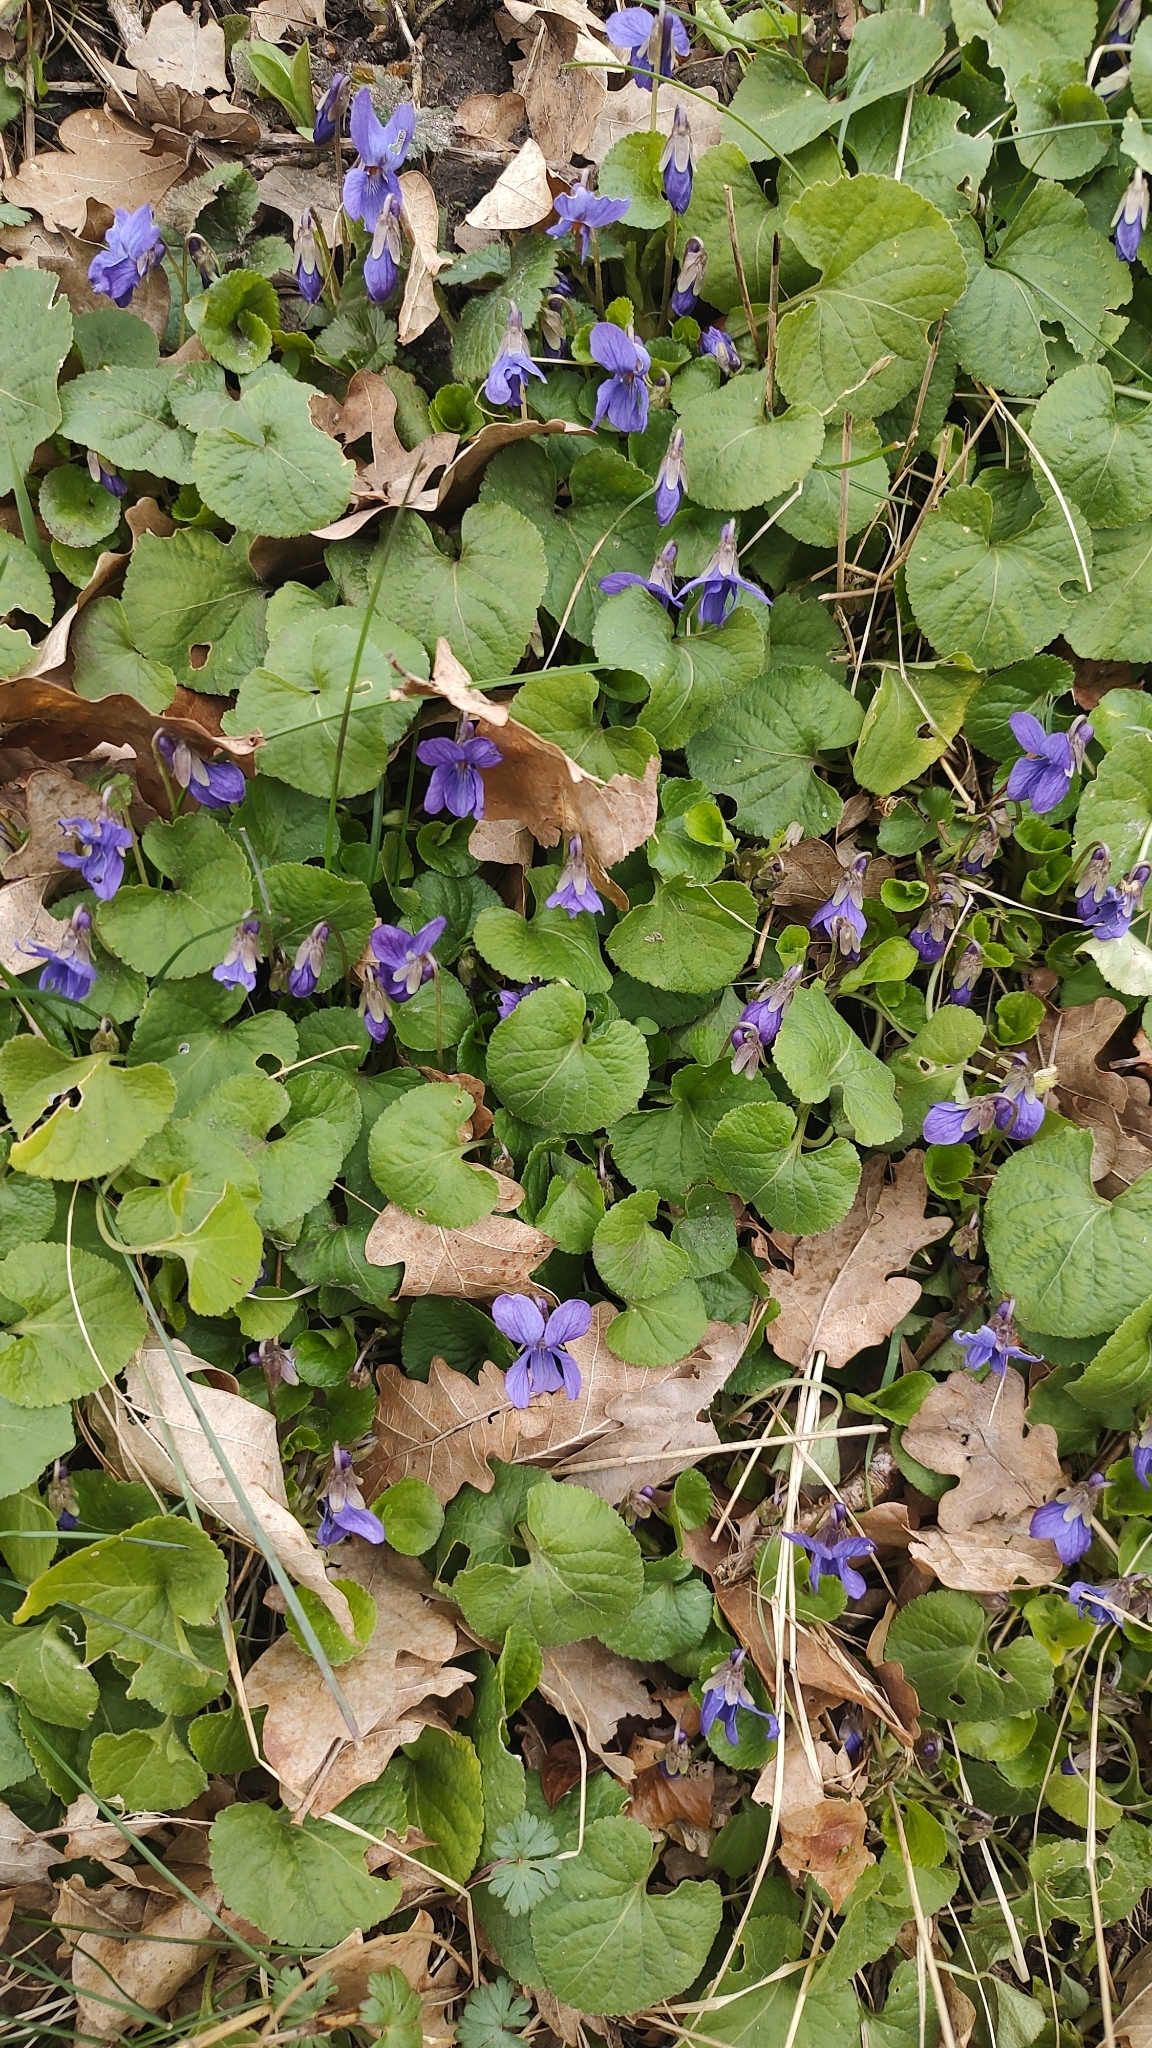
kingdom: Plantae
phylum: Tracheophyta
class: Magnoliopsida
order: Malpighiales
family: Violaceae
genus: Viola
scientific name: Viola odorata
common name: Sweet violet
